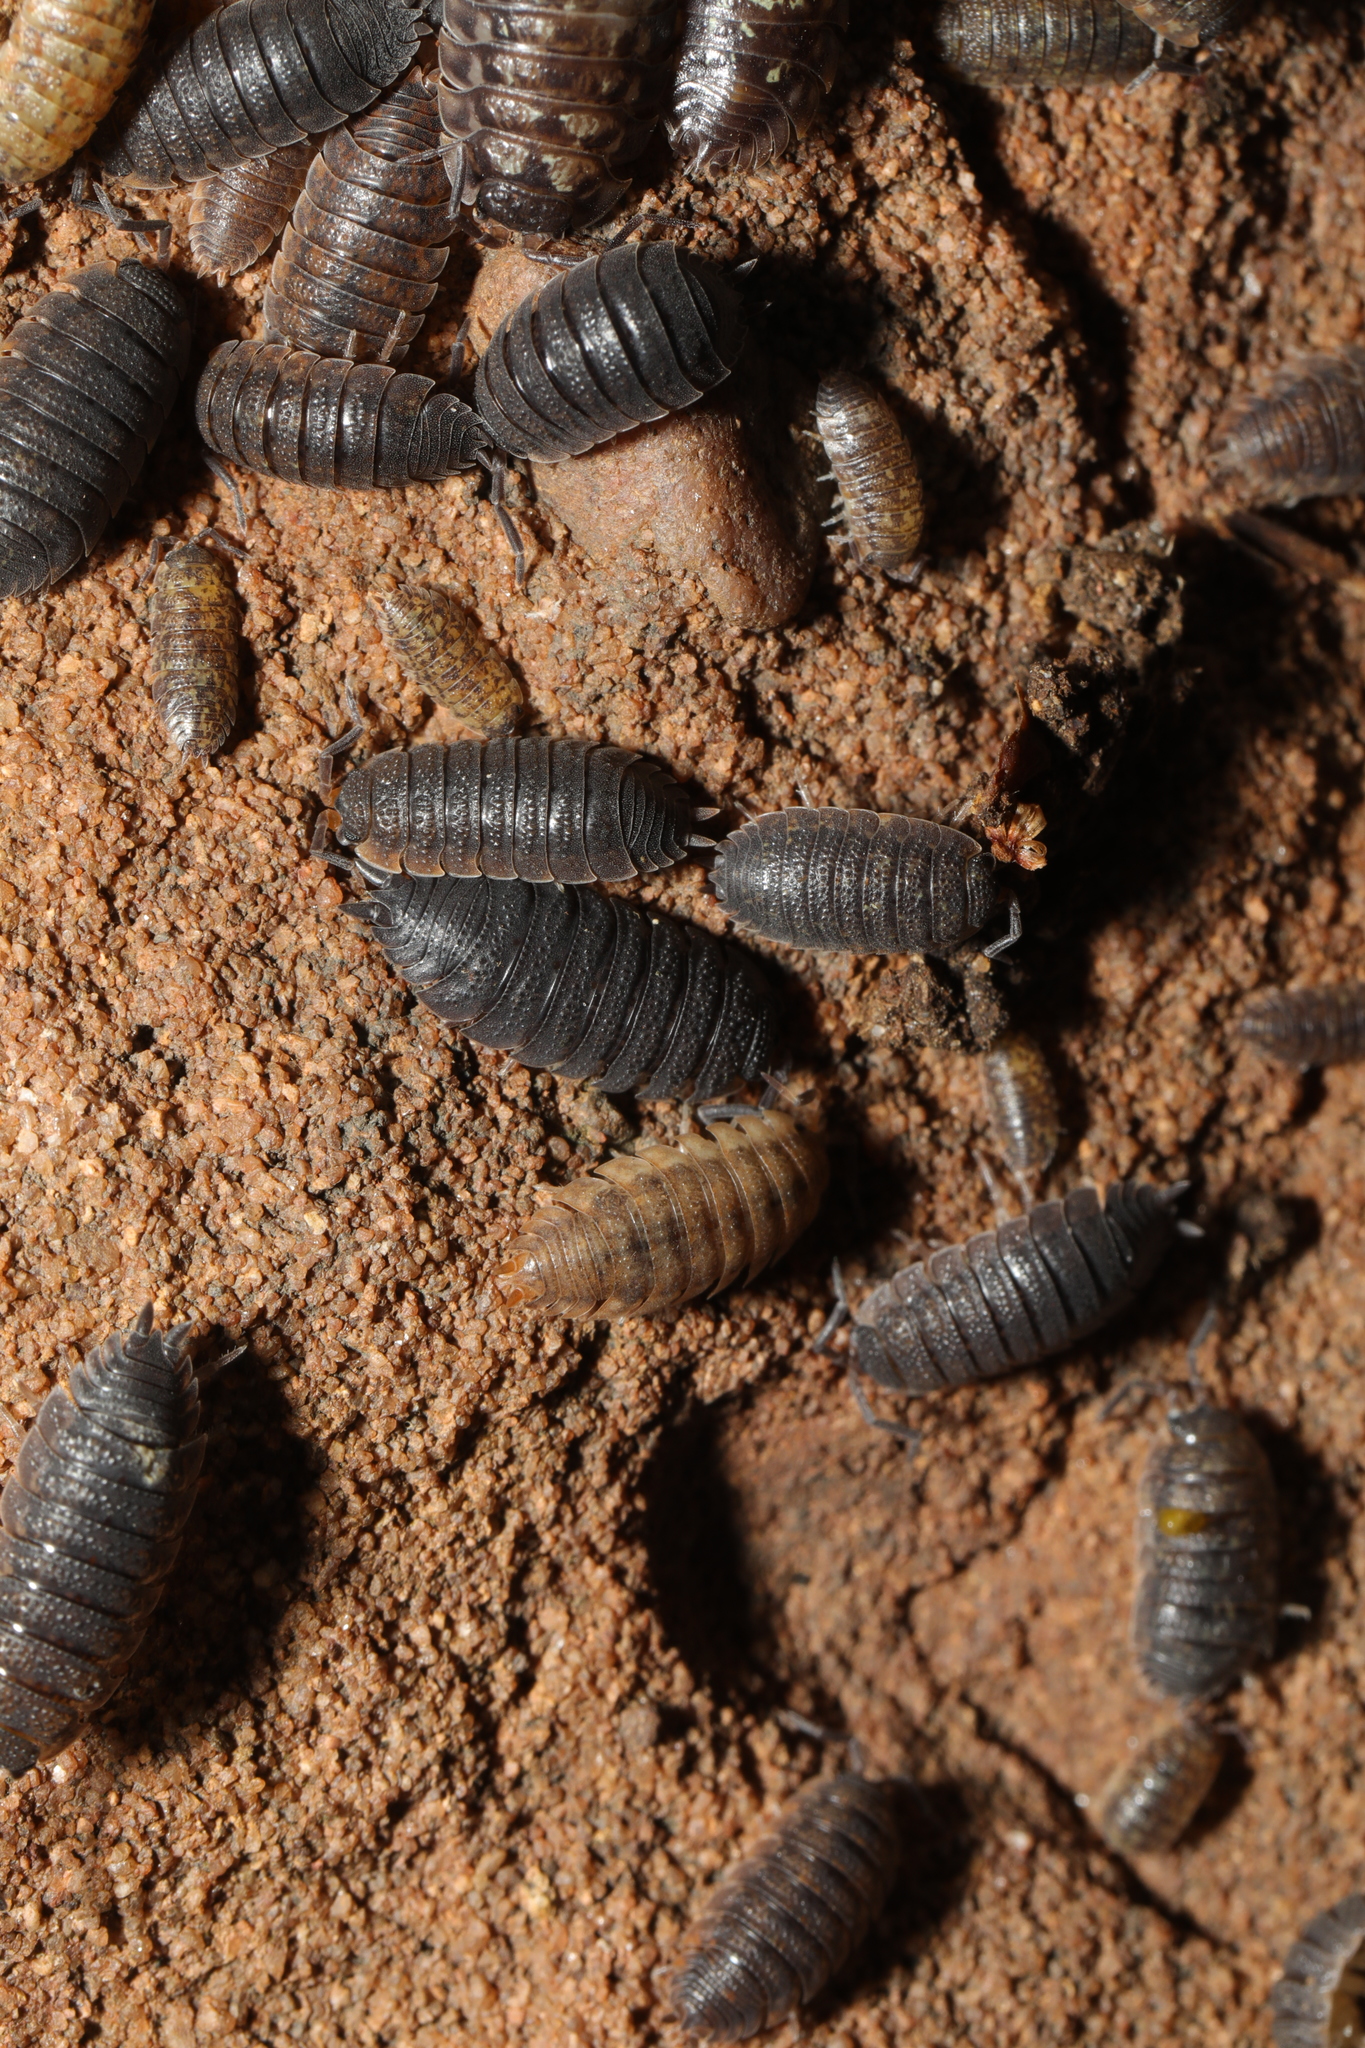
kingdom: Animalia
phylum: Arthropoda
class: Malacostraca
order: Isopoda
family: Porcellionidae
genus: Porcellio
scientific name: Porcellio scaber
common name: Common rough woodlouse
